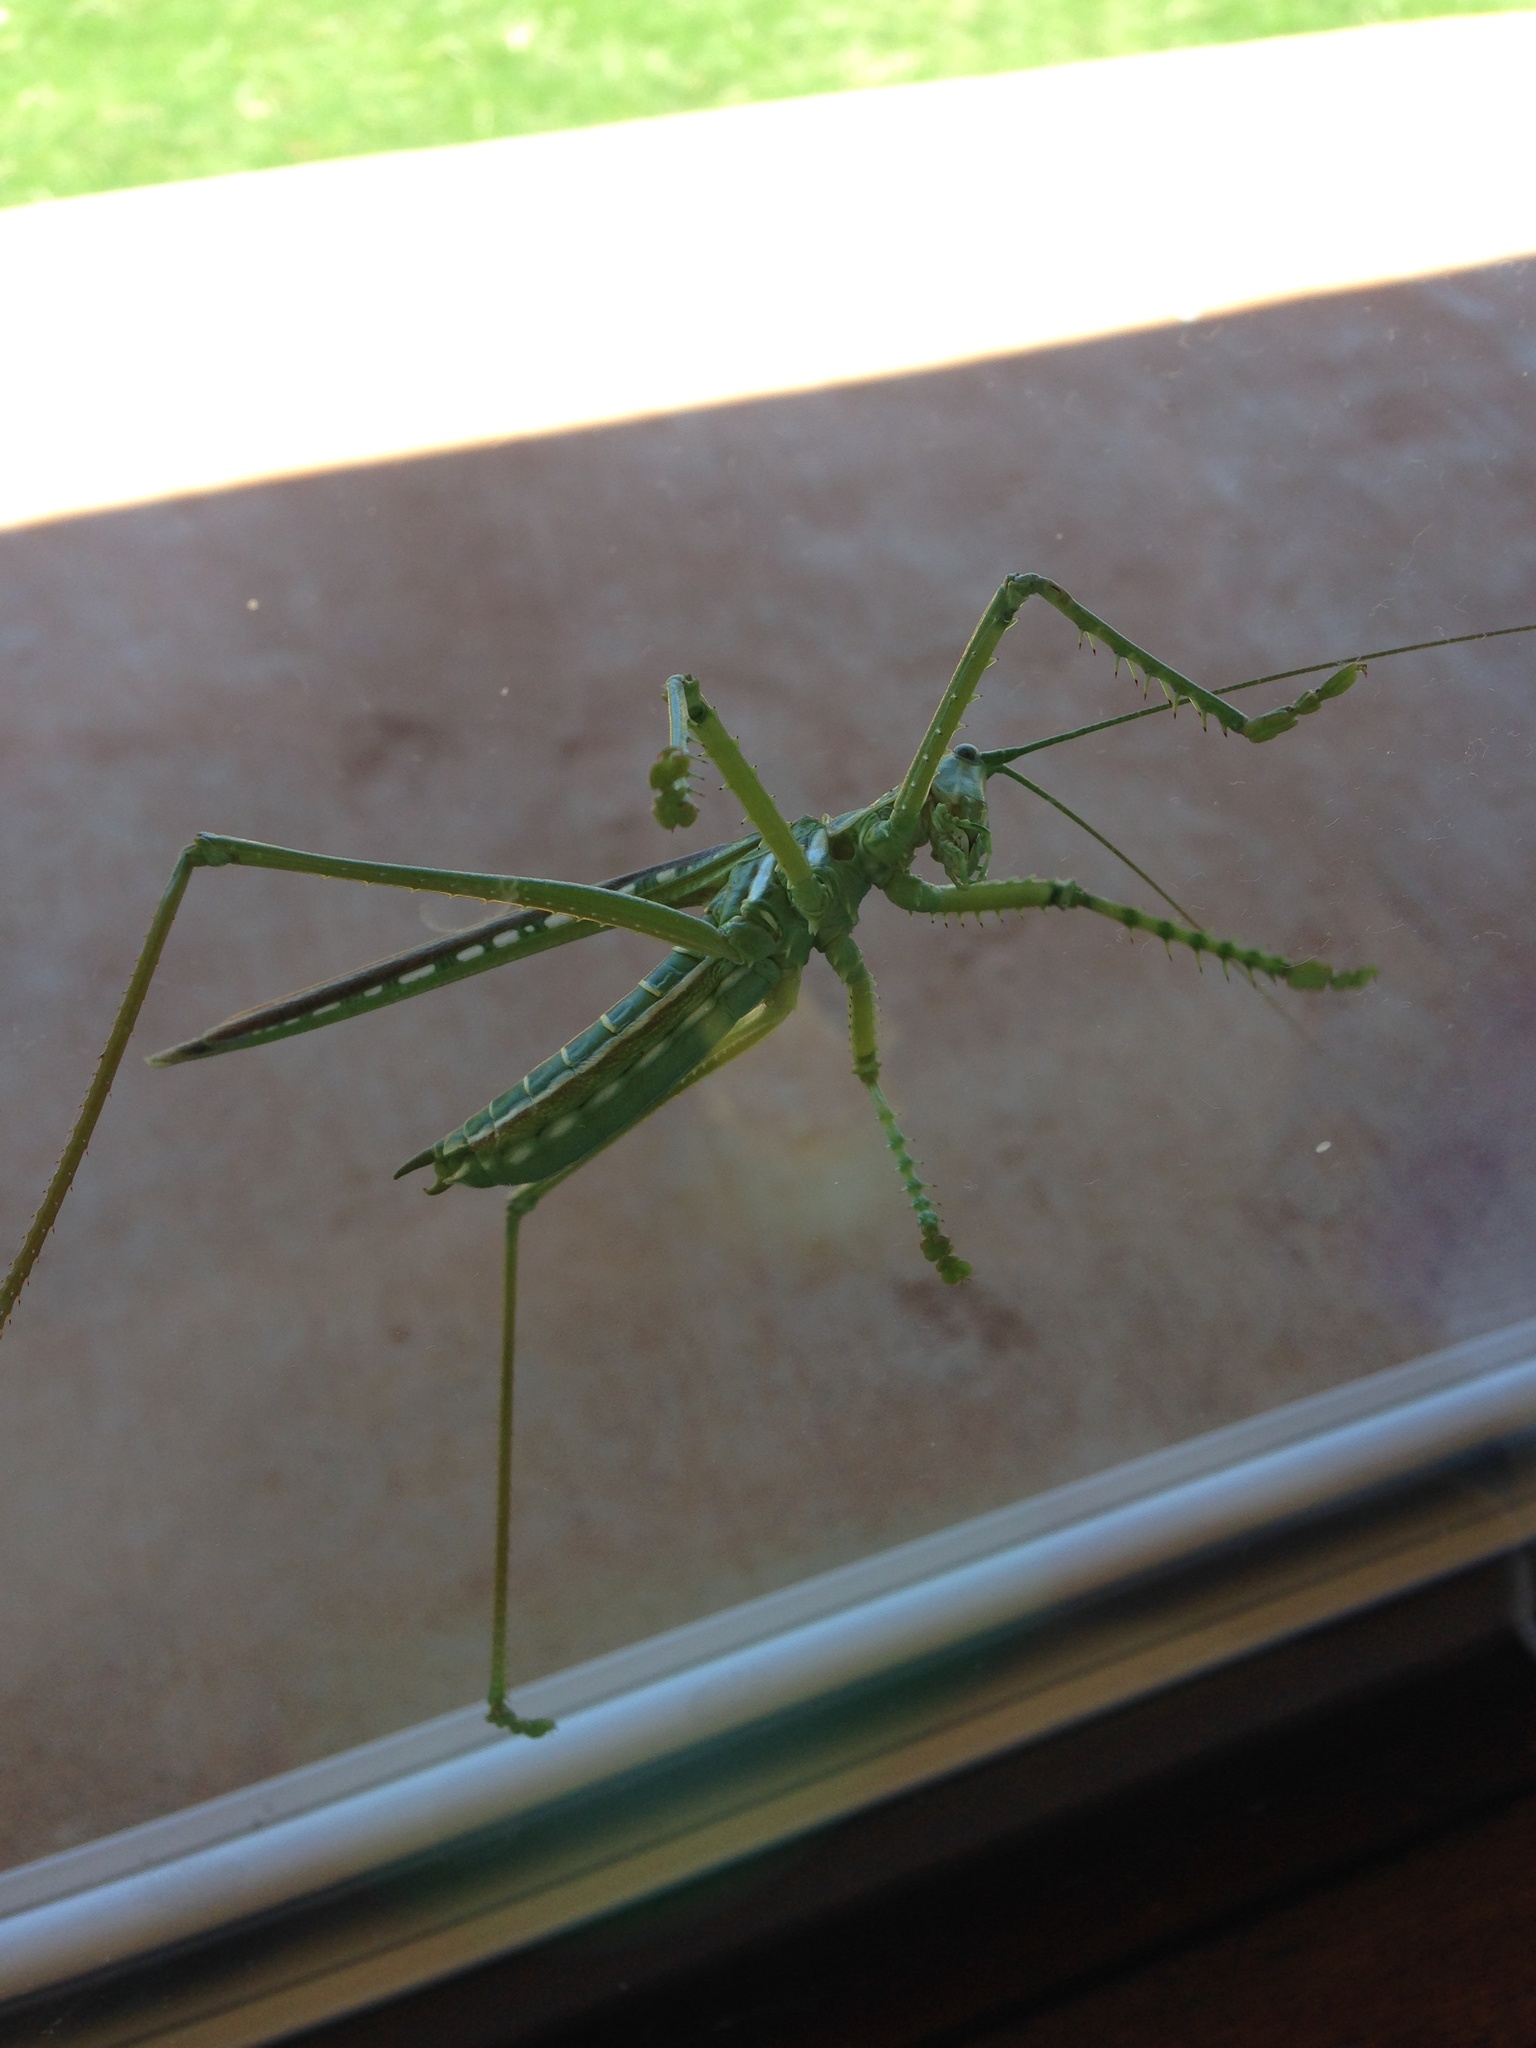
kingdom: Animalia
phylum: Arthropoda
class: Insecta
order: Orthoptera
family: Tettigoniidae
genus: Clonia
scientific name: Clonia wahlbergi
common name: Wahlberg's clonia
